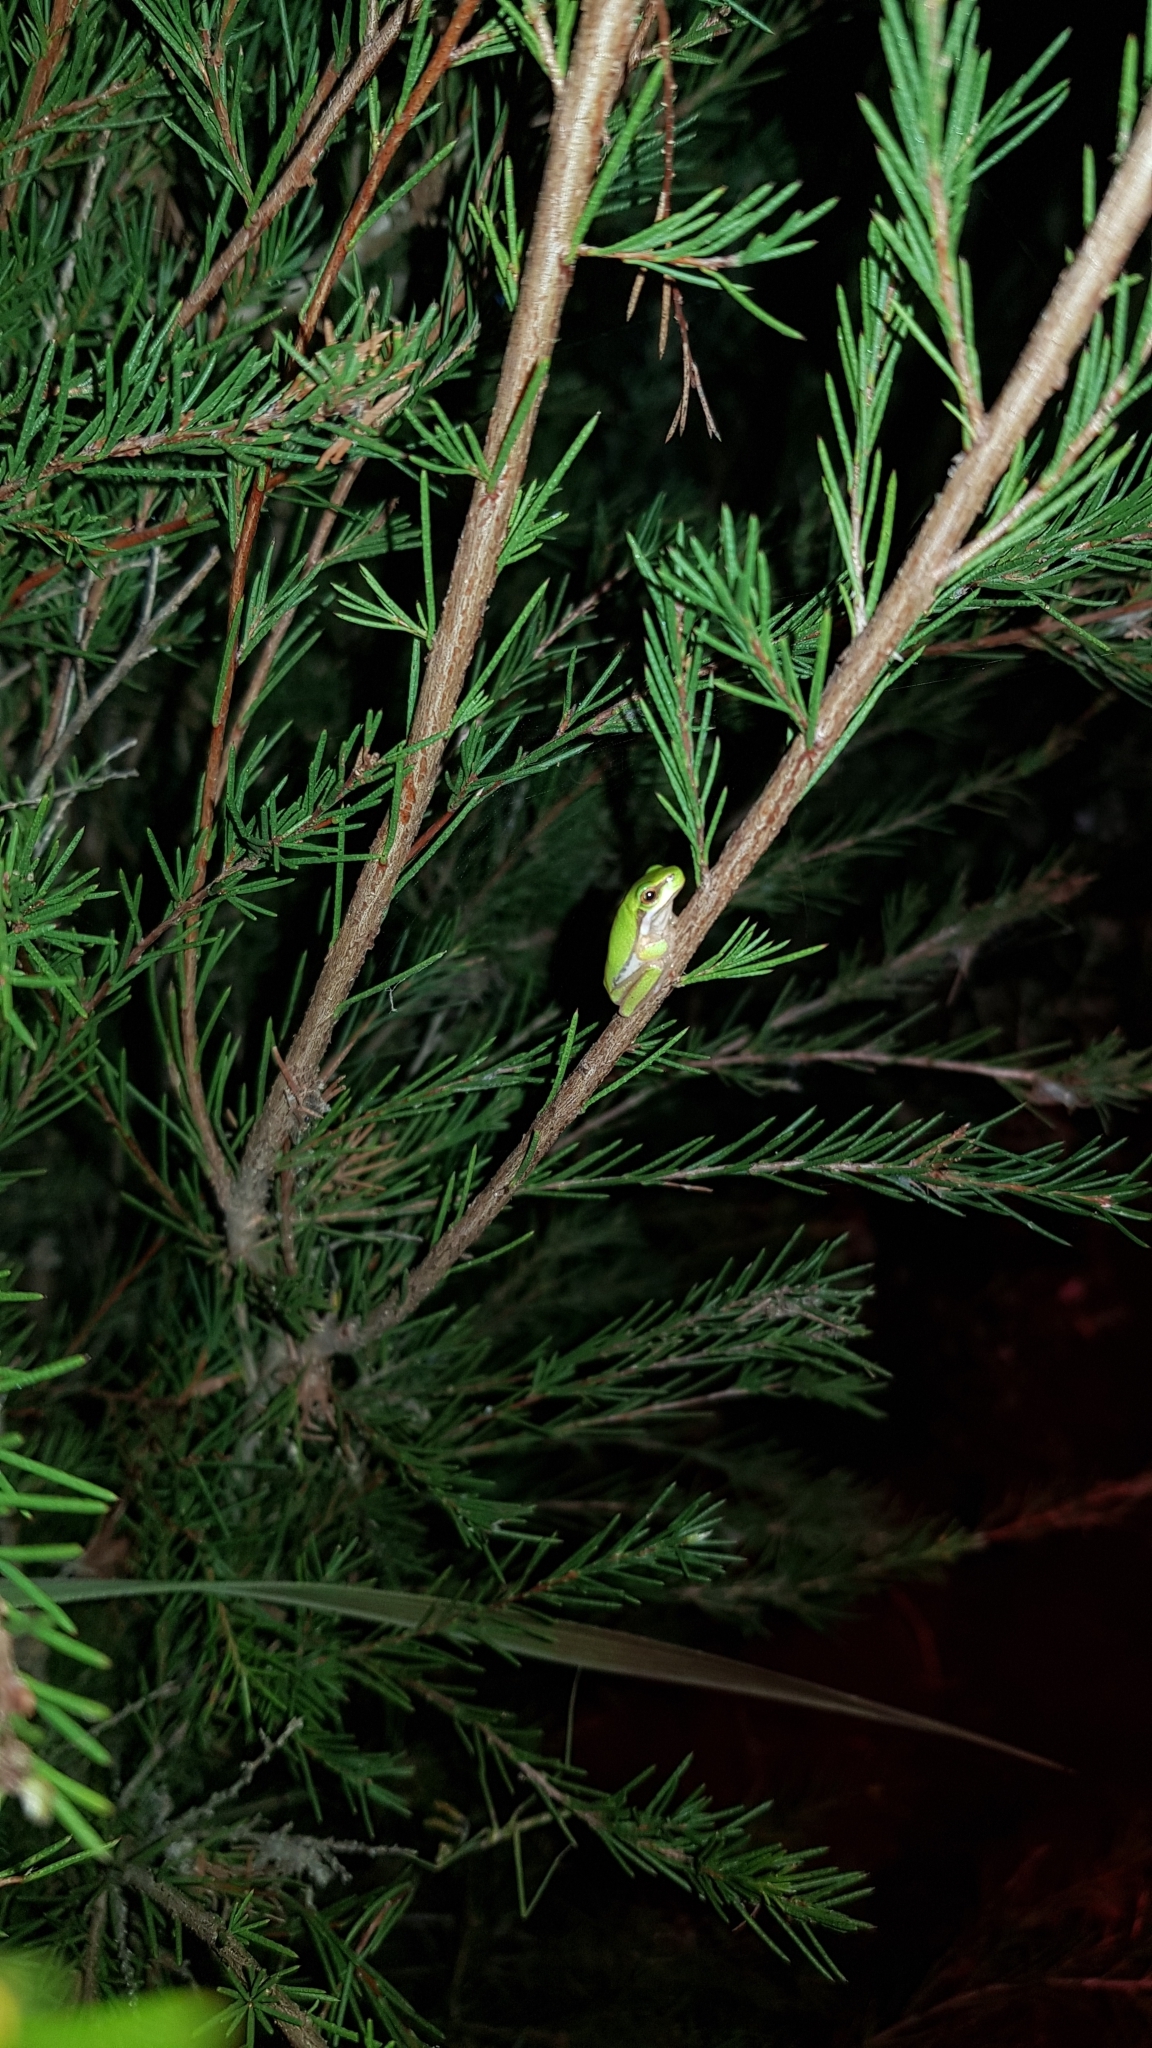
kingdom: Animalia
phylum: Chordata
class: Amphibia
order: Anura
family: Pelodryadidae
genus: Litoria
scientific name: Litoria fallax
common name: Eastern dwarf treefrog
